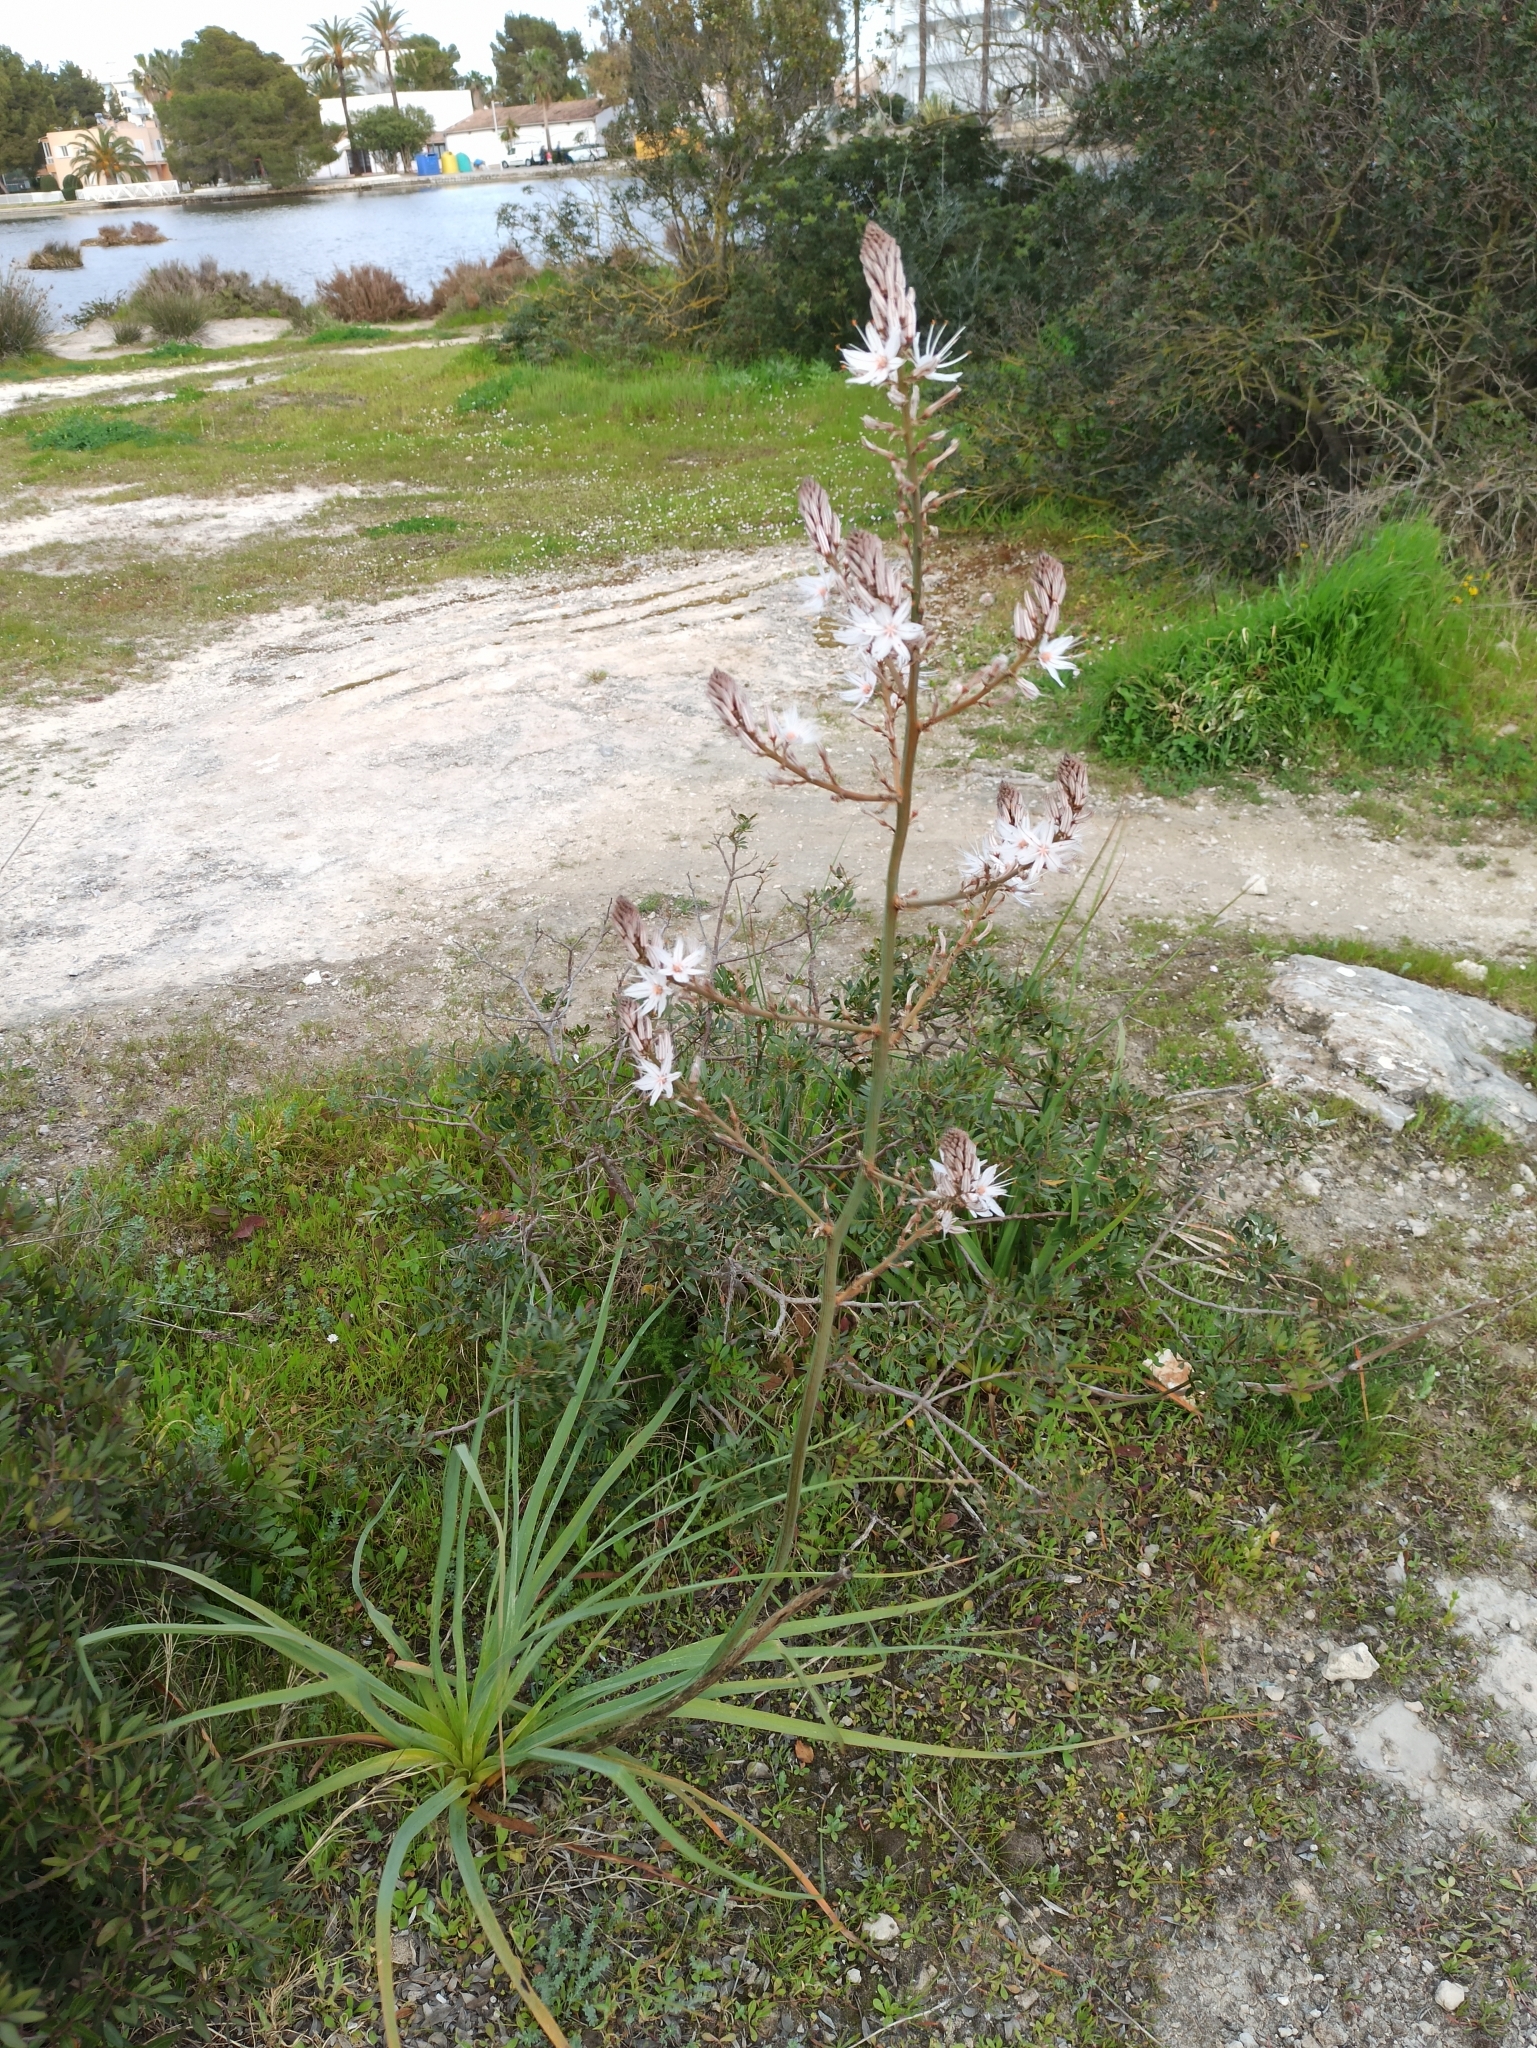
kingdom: Plantae
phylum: Tracheophyta
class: Liliopsida
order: Asparagales
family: Asphodelaceae
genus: Asphodelus
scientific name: Asphodelus ramosus
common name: Silverrod
